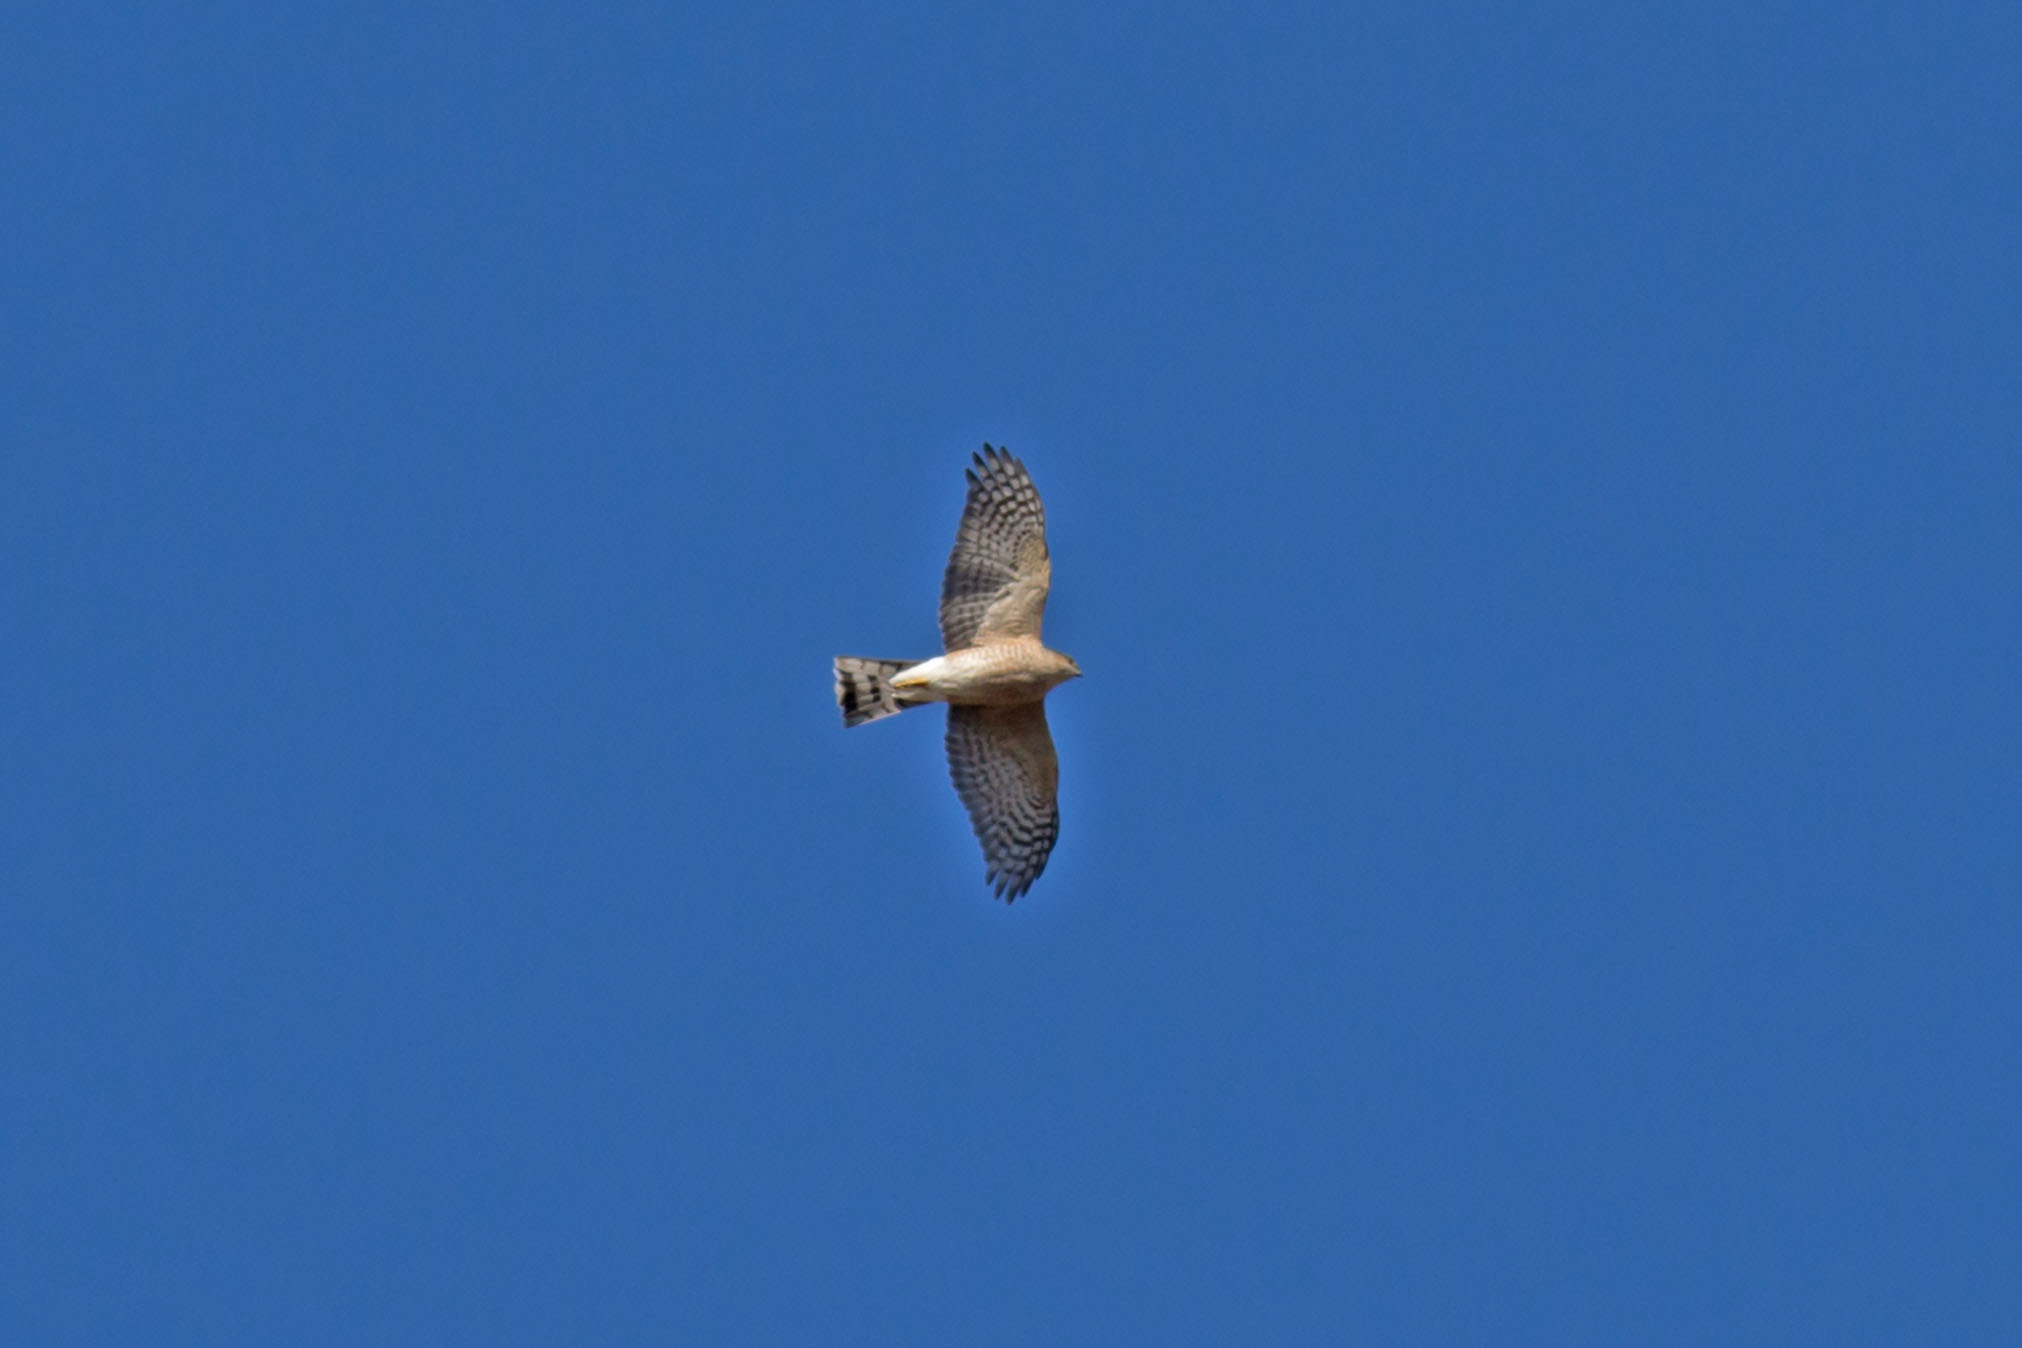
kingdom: Animalia
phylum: Chordata
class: Aves
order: Accipitriformes
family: Accipitridae
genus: Accipiter
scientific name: Accipiter striatus
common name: Sharp-shinned hawk
